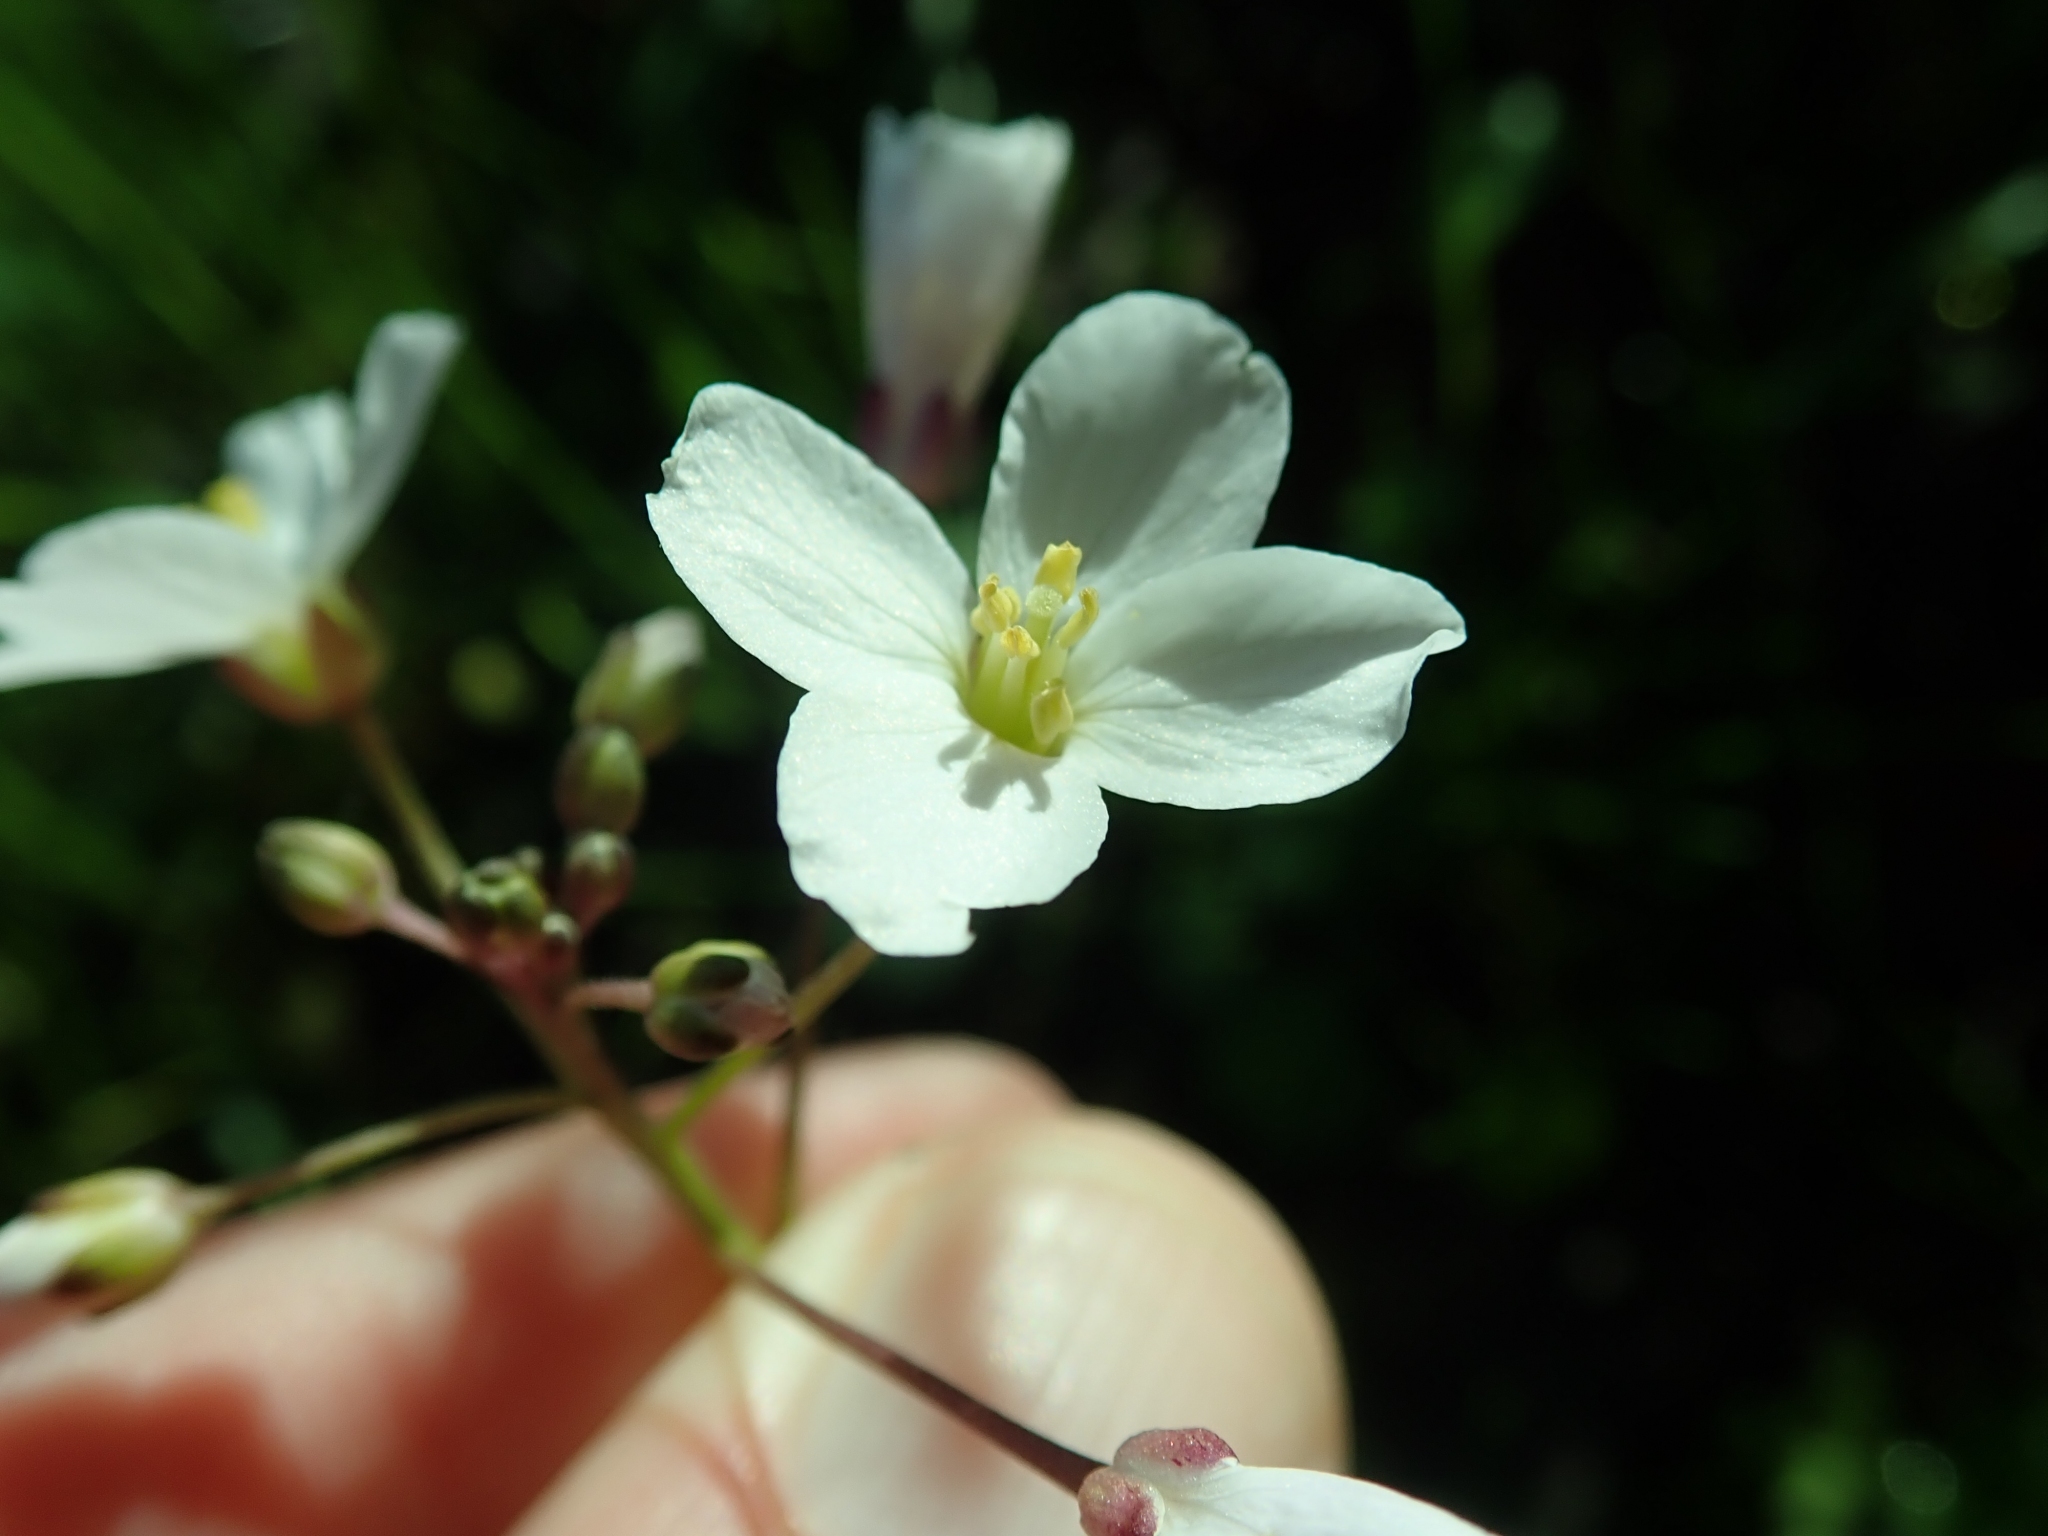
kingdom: Plantae
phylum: Tracheophyta
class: Magnoliopsida
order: Brassicales
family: Brassicaceae
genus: Cardamine
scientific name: Cardamine californica
